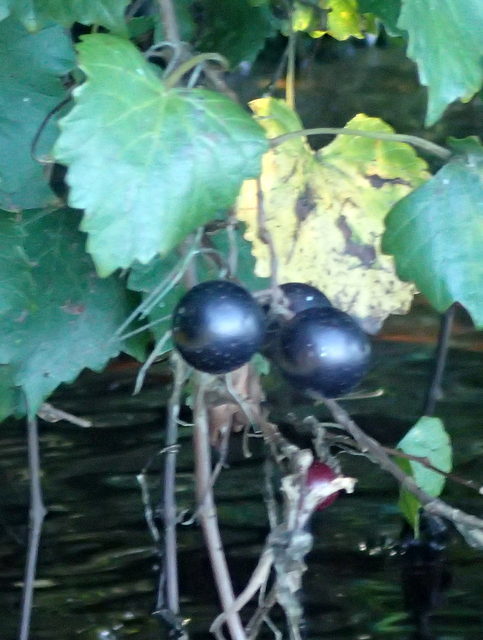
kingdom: Plantae
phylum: Tracheophyta
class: Magnoliopsida
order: Vitales
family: Vitaceae
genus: Vitis
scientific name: Vitis rotundifolia
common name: Muscadine grape
